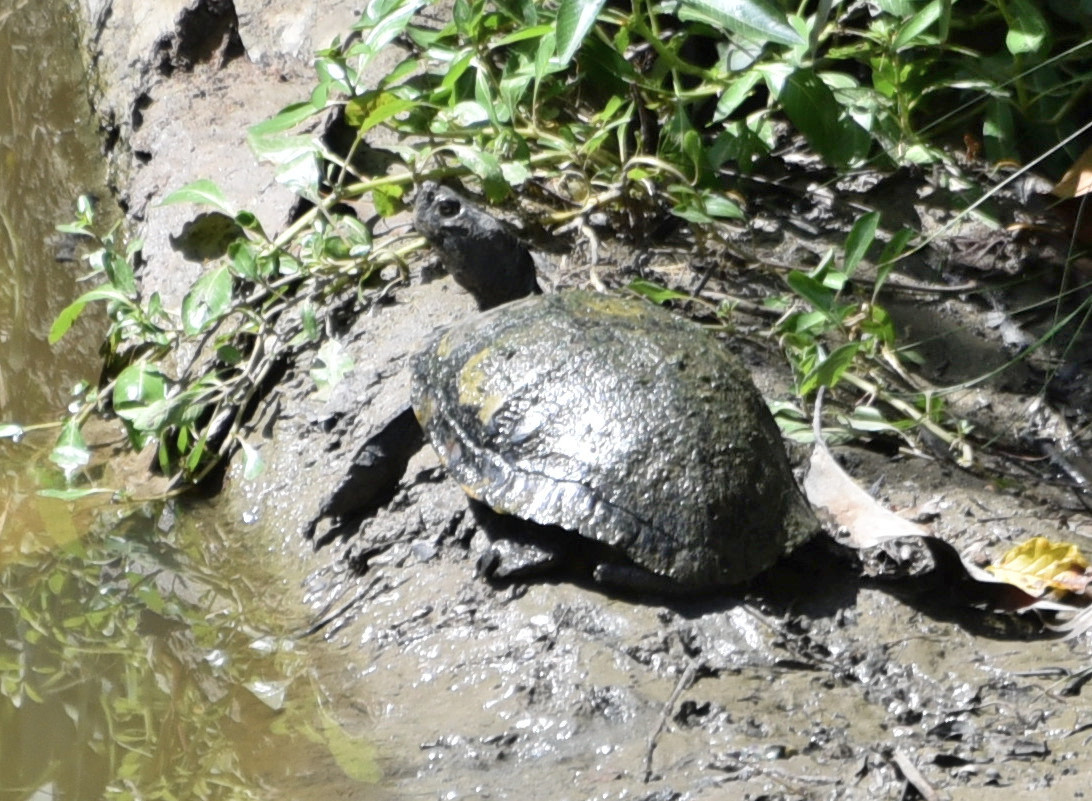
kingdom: Animalia
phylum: Chordata
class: Testudines
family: Emydidae
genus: Trachemys
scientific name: Trachemys scripta
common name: Slider
